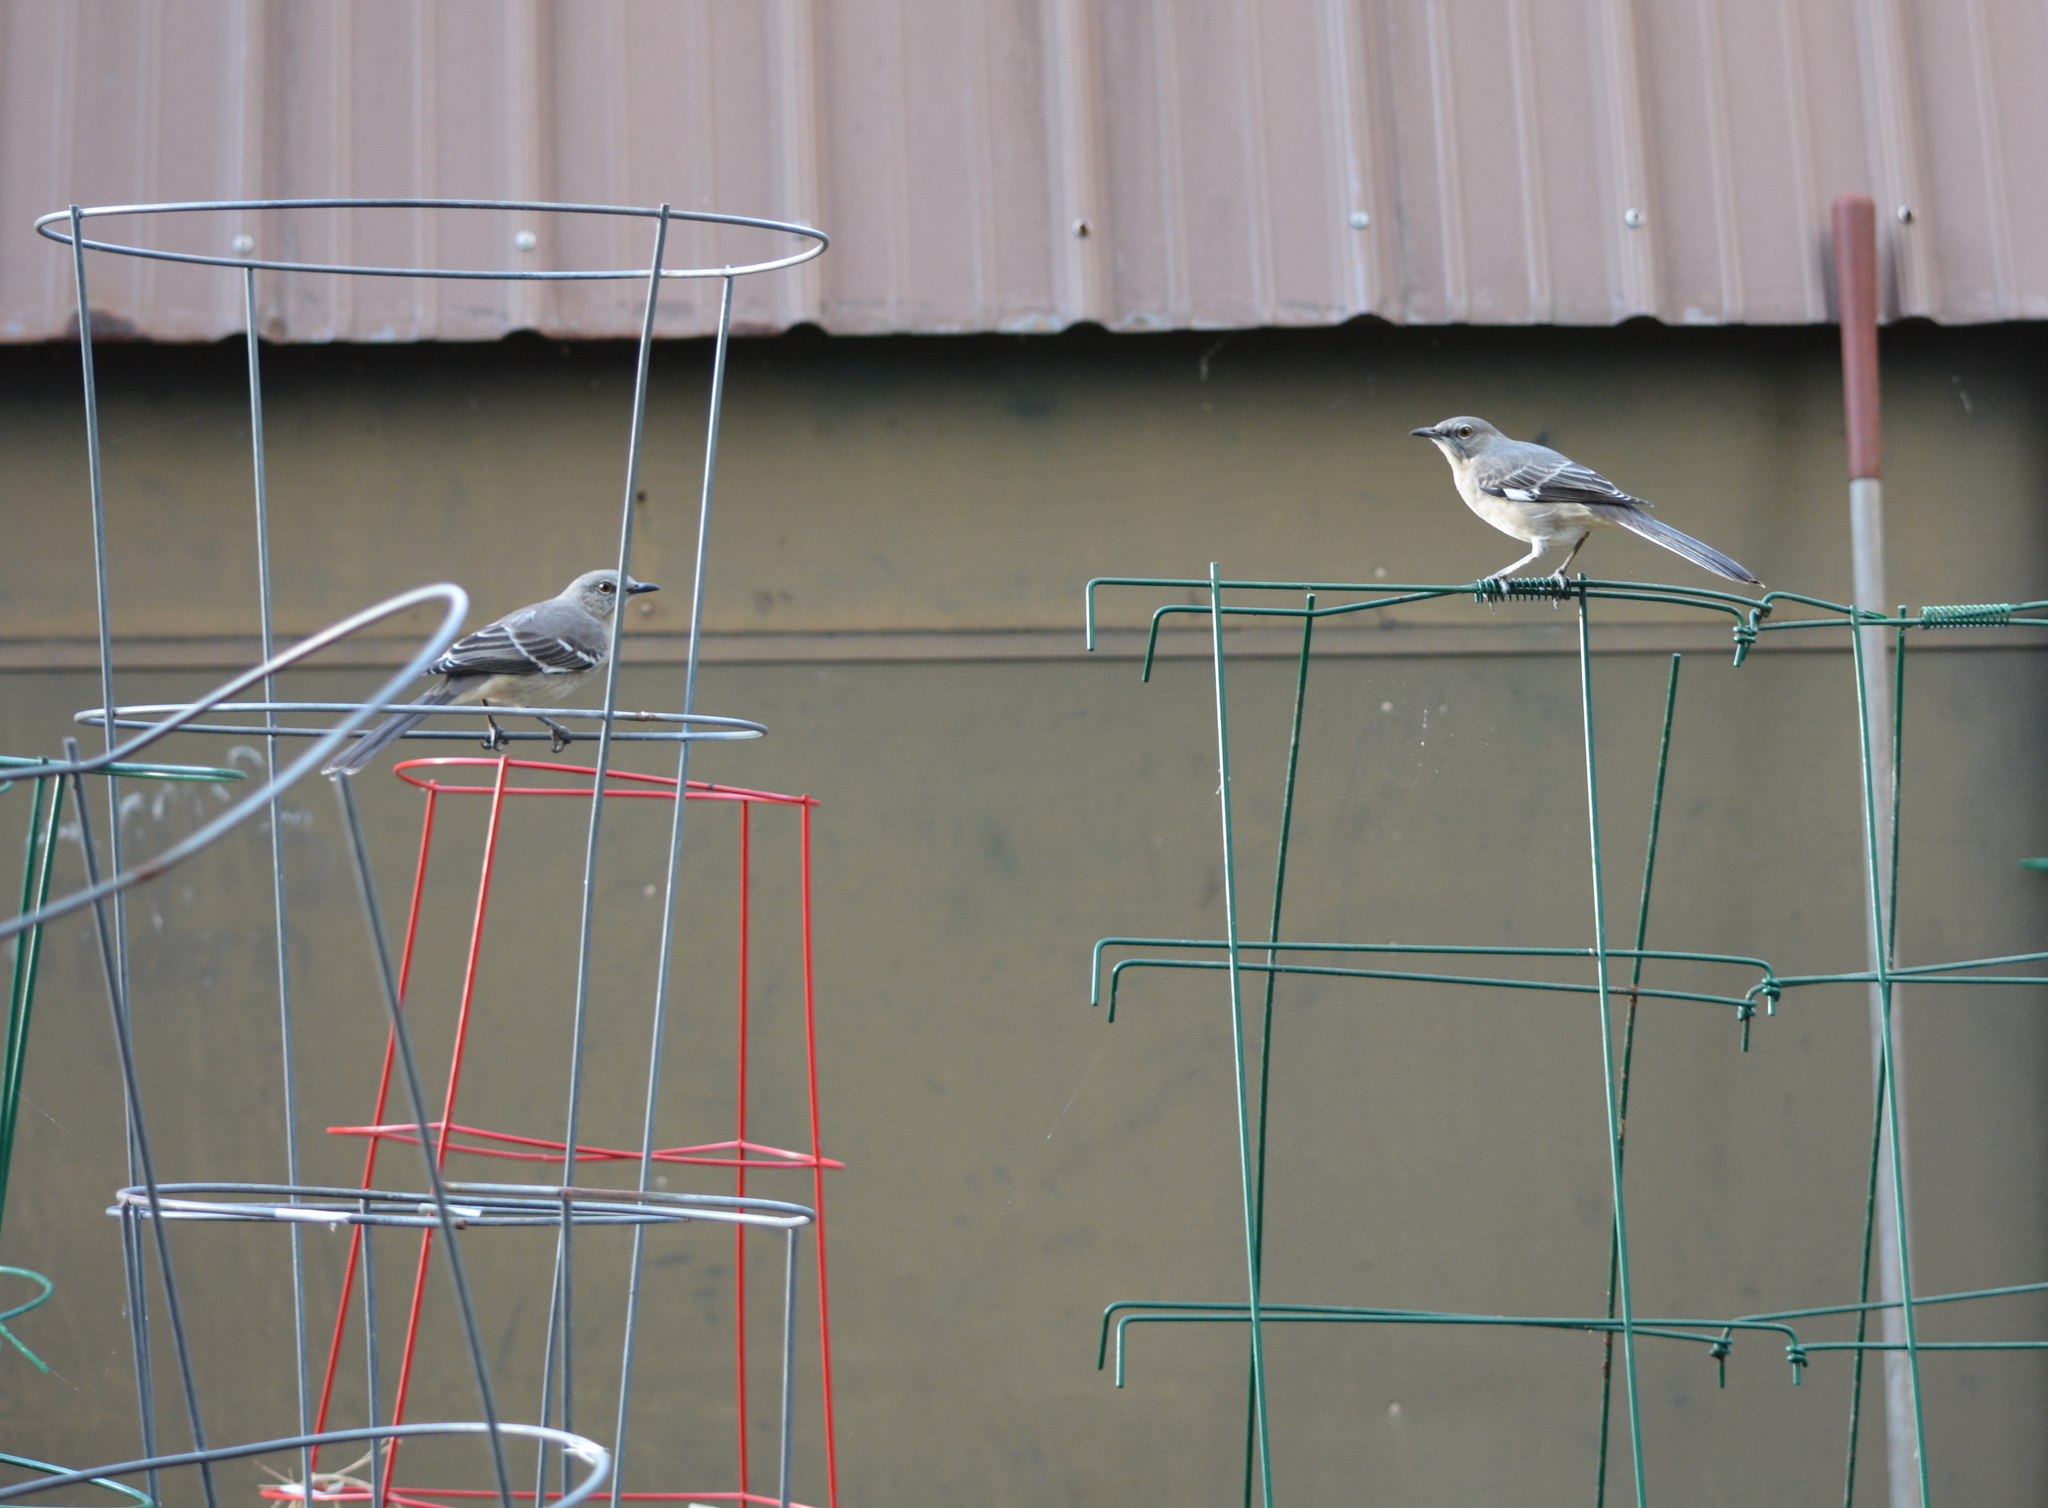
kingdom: Animalia
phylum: Chordata
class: Aves
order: Passeriformes
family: Mimidae
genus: Mimus
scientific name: Mimus polyglottos
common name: Northern mockingbird
